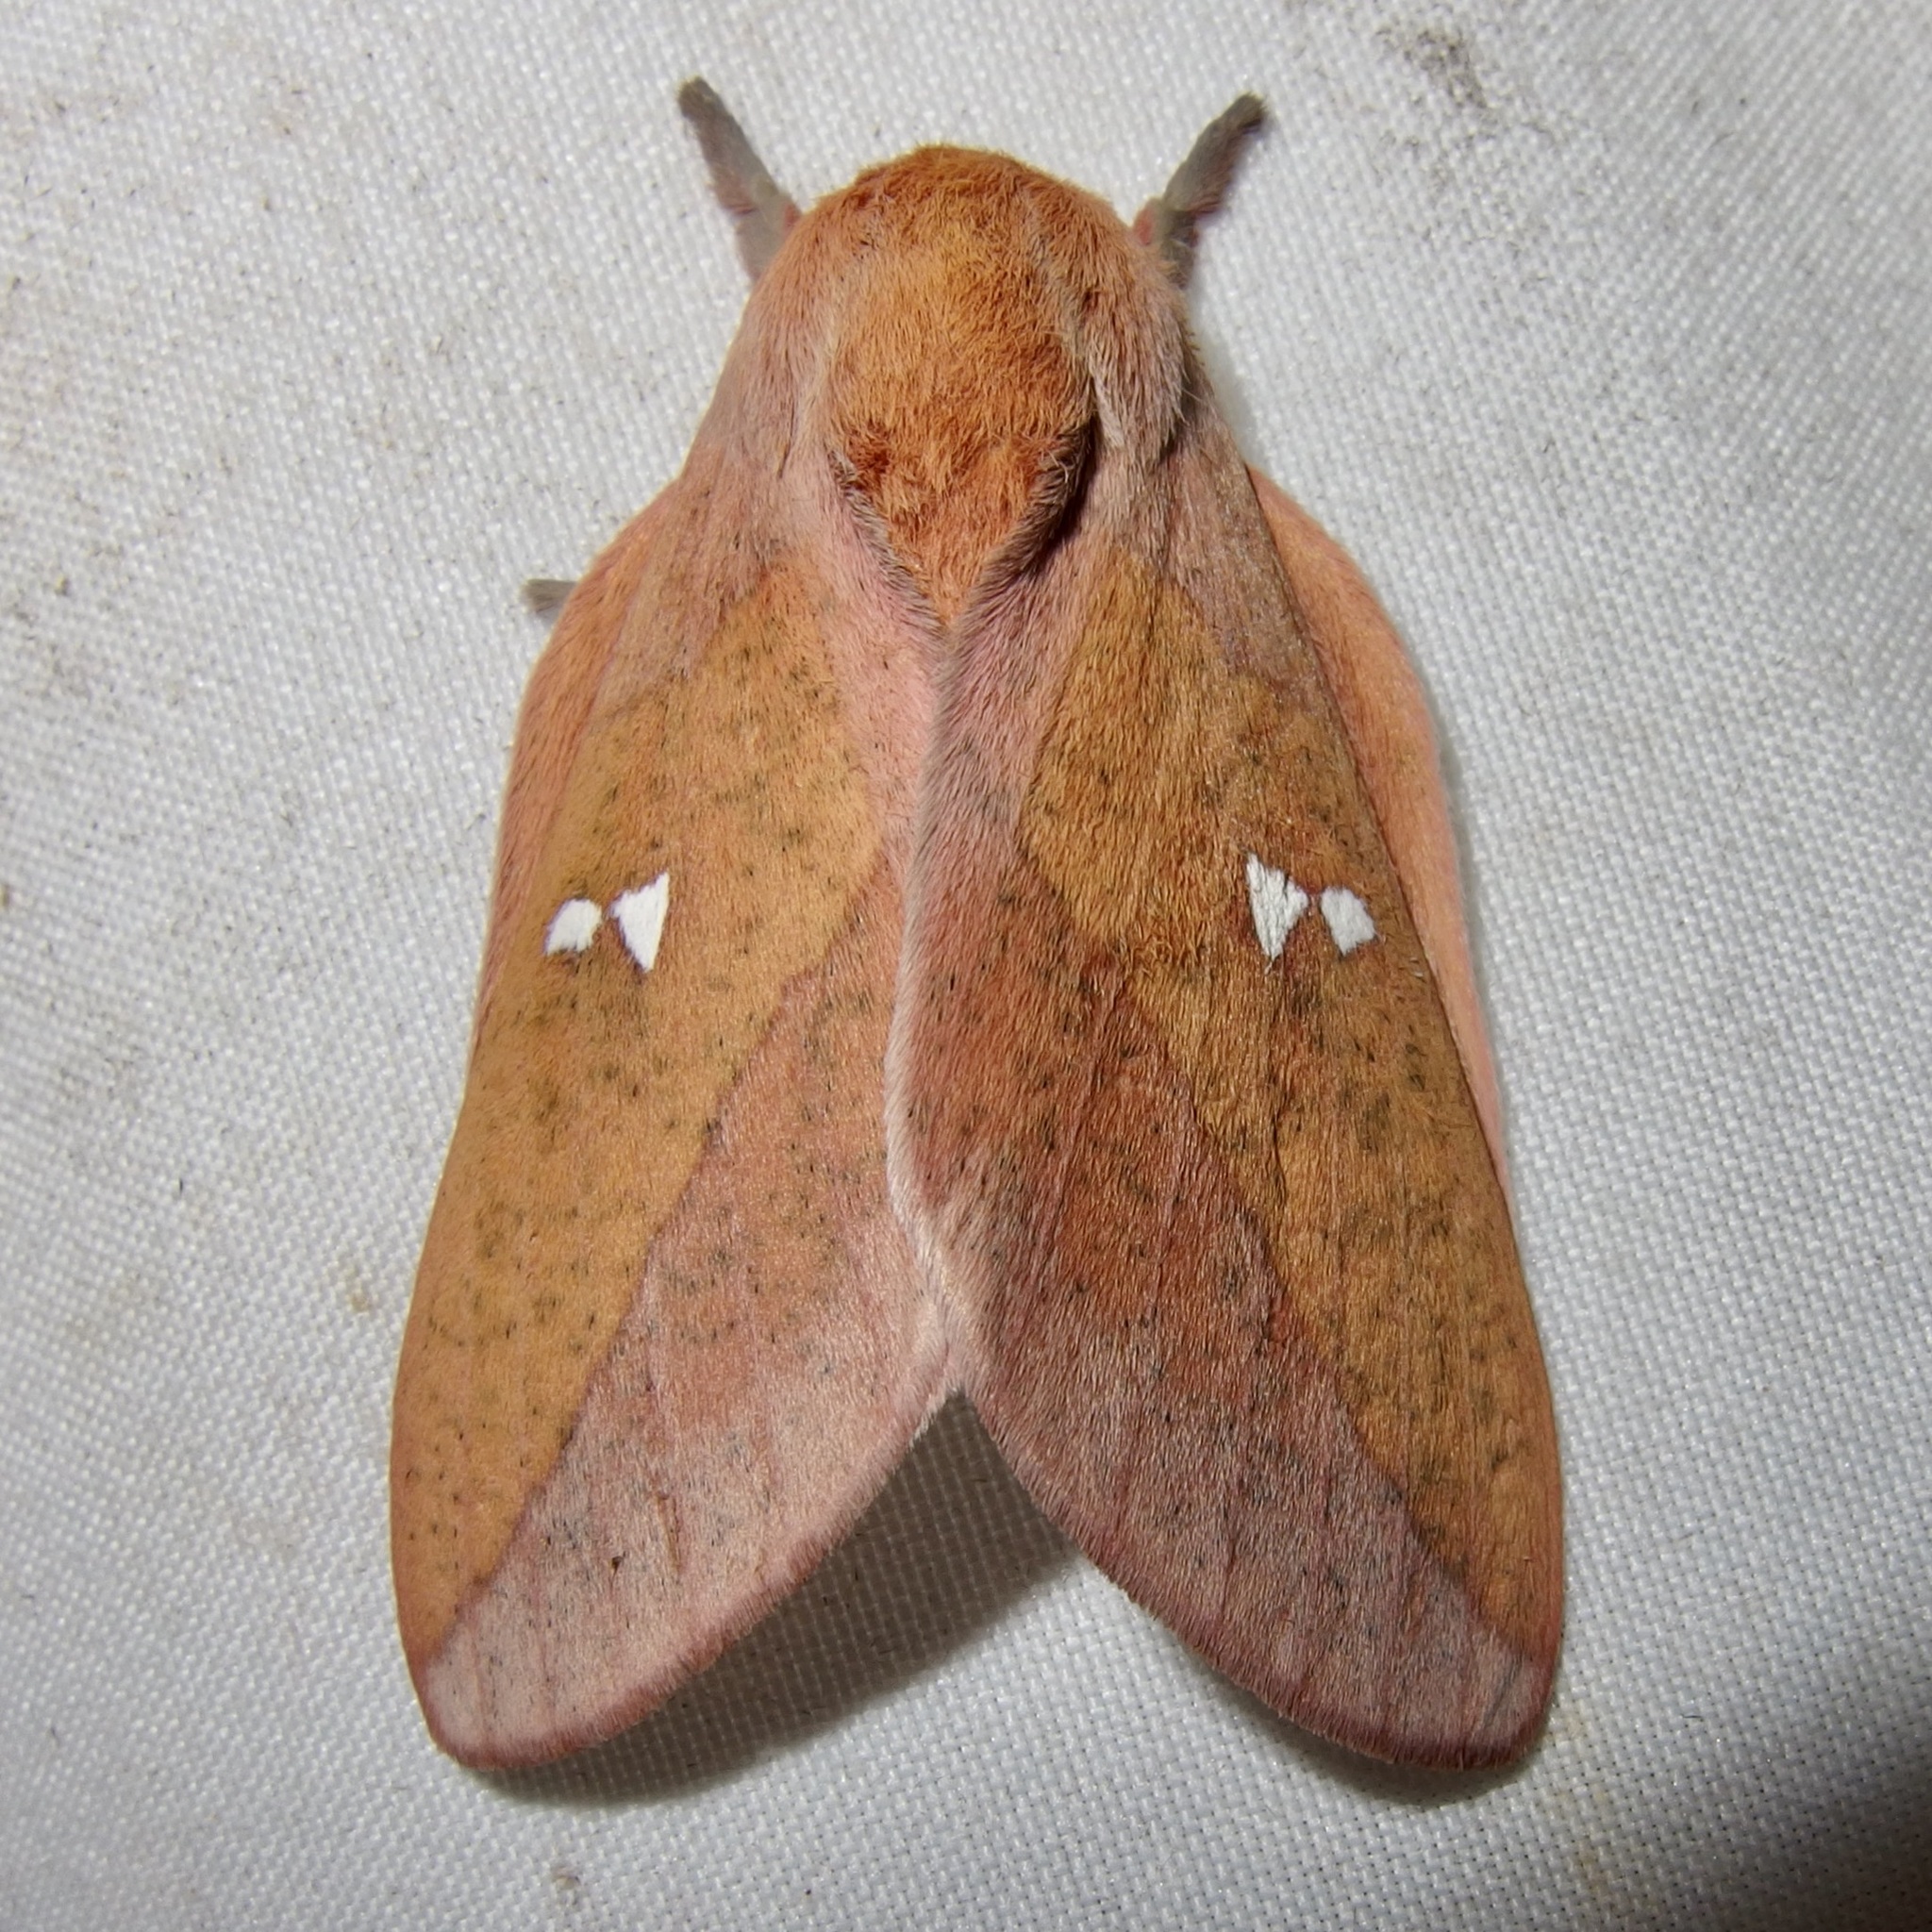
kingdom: Animalia
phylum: Arthropoda
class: Insecta
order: Lepidoptera
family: Saturniidae
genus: Syssphinx
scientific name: Syssphinx montana
